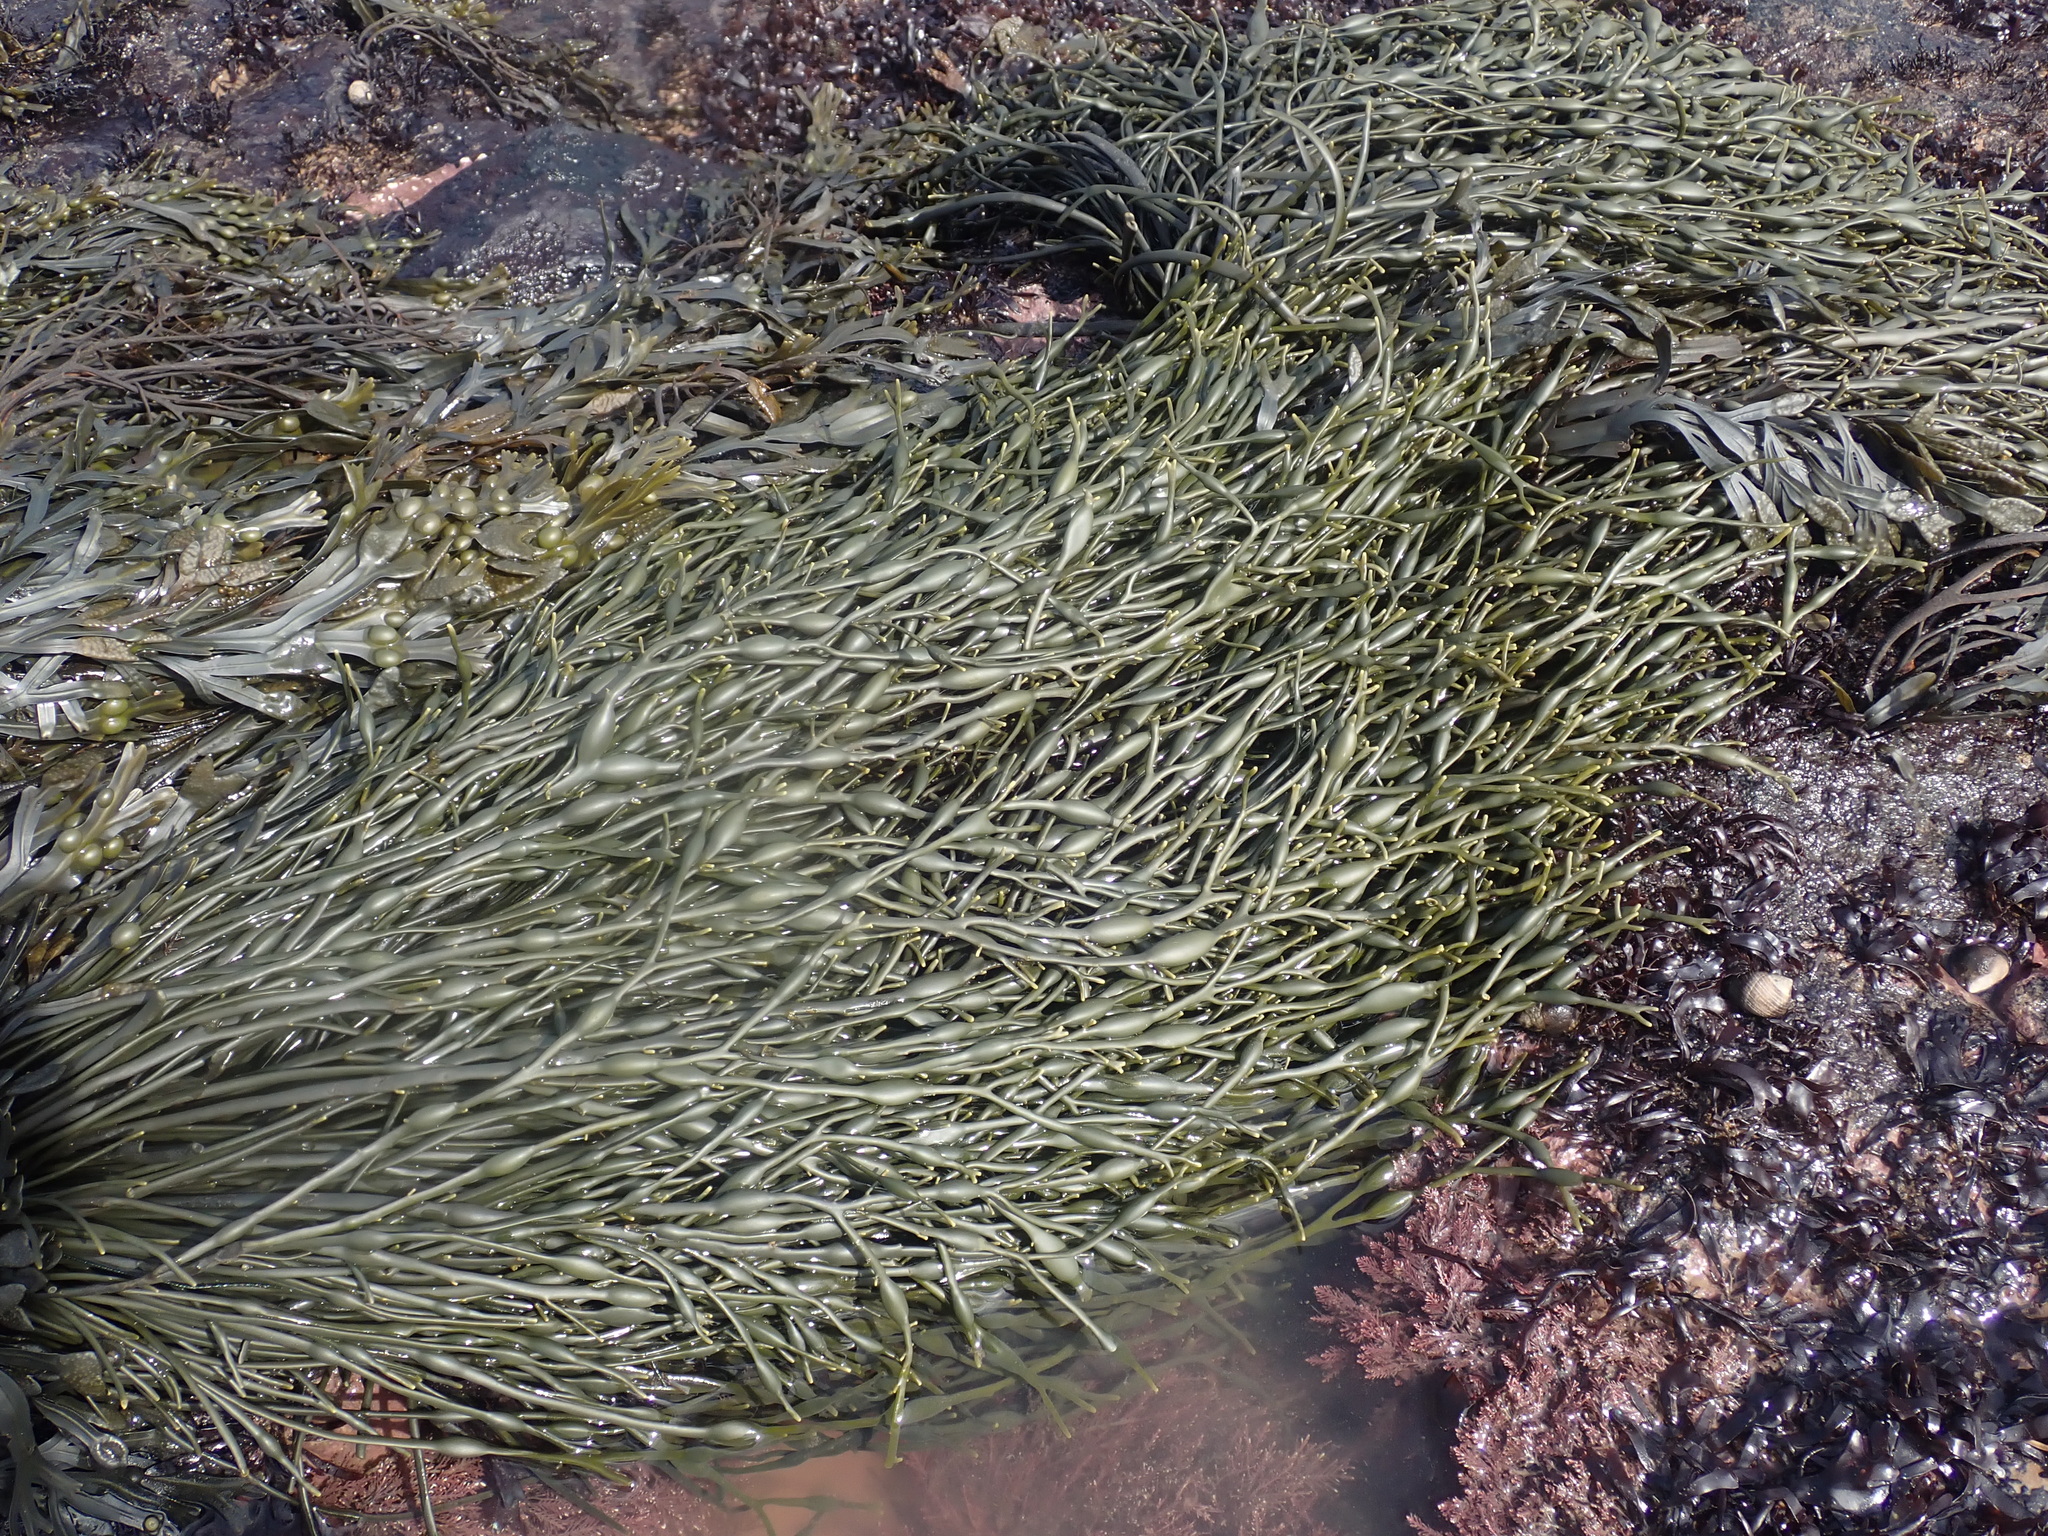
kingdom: Chromista
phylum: Ochrophyta
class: Phaeophyceae
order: Fucales
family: Fucaceae
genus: Ascophyllum
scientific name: Ascophyllum nodosum
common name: Knotted wrack
